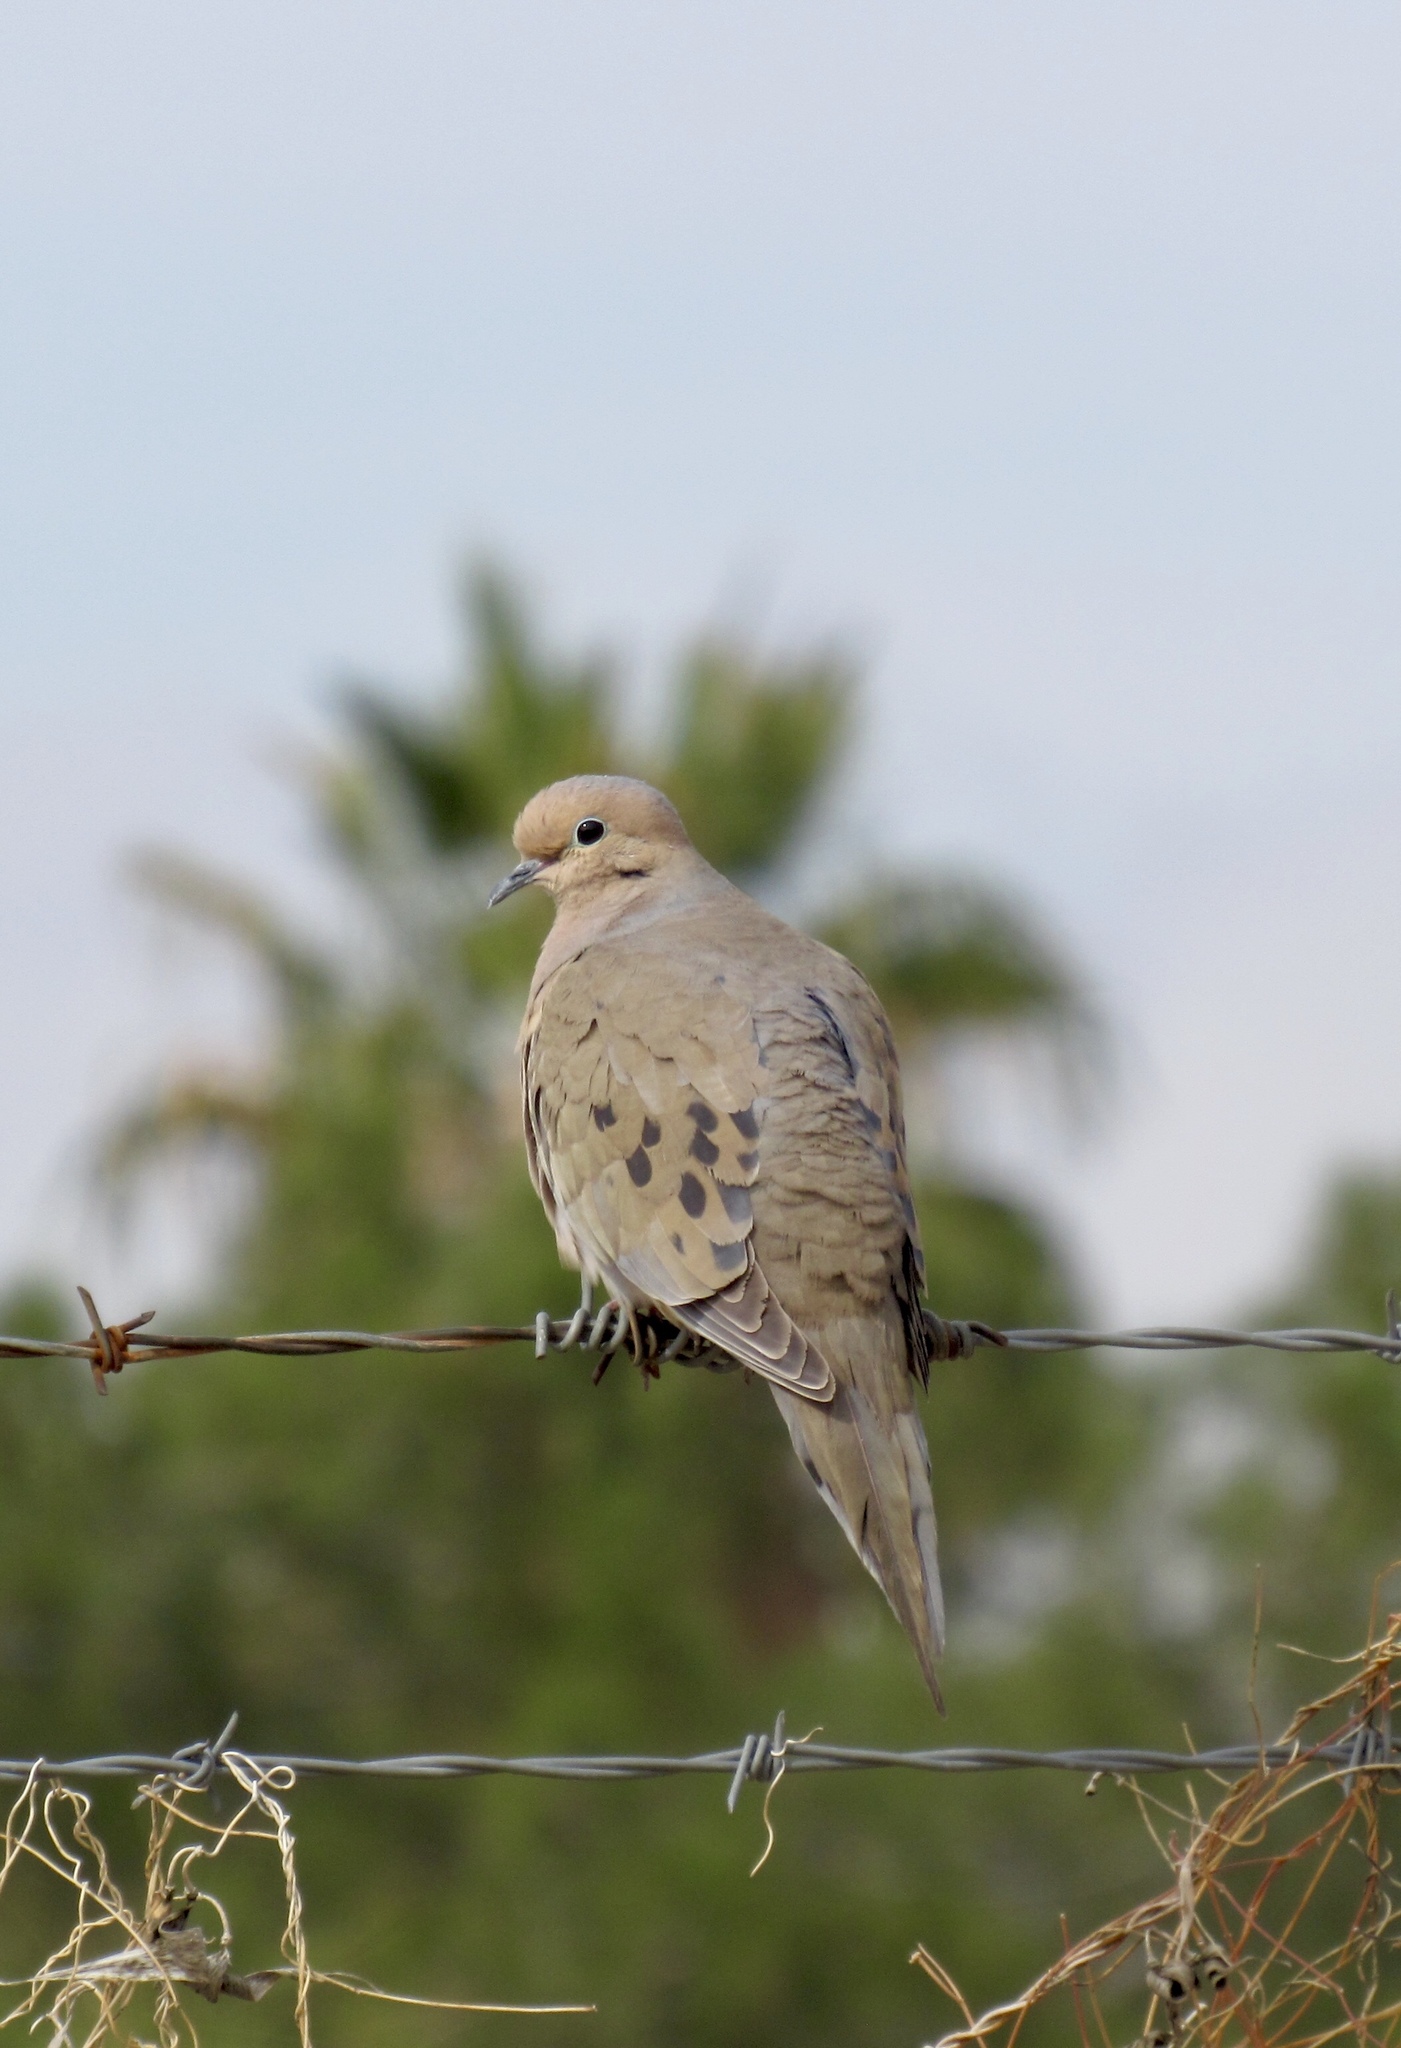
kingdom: Animalia
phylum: Chordata
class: Aves
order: Columbiformes
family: Columbidae
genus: Zenaida
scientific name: Zenaida macroura
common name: Mourning dove
